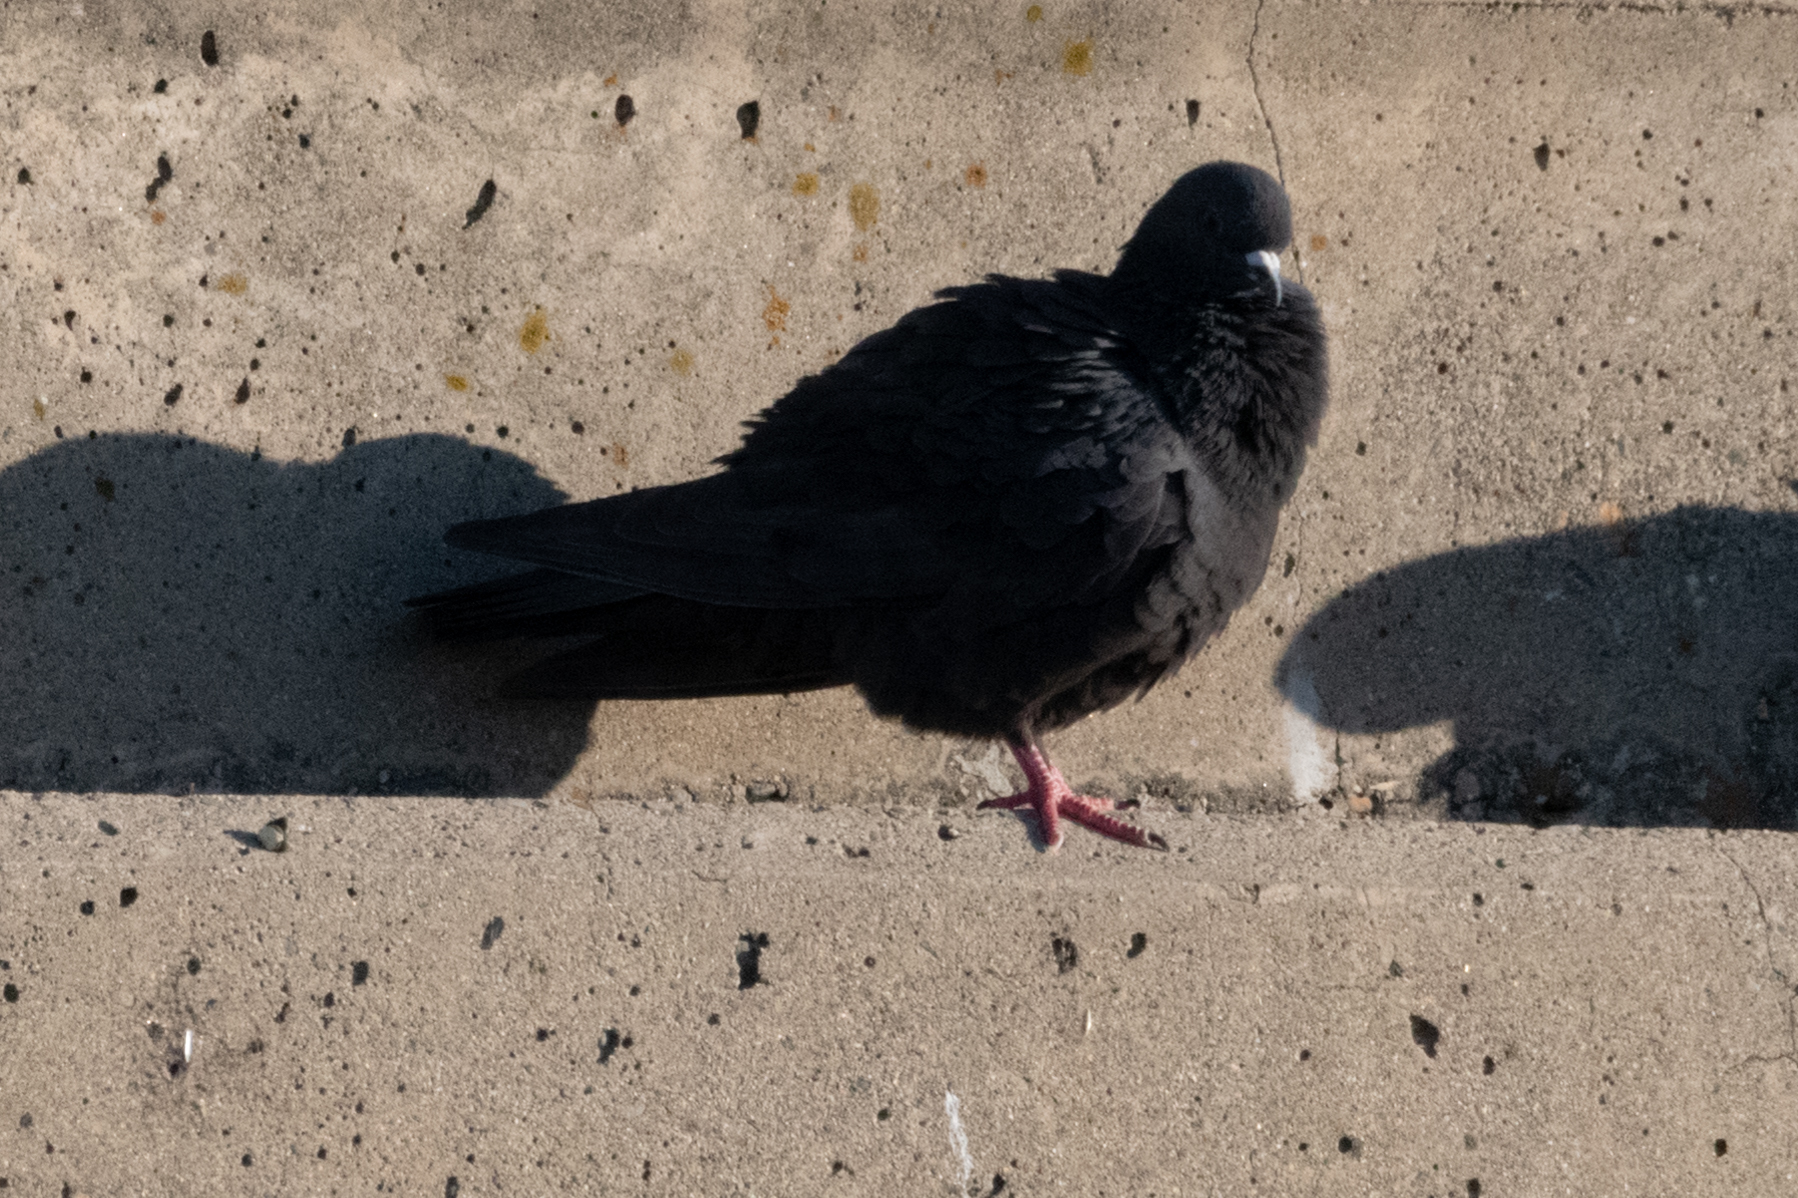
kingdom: Animalia
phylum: Chordata
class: Aves
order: Columbiformes
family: Columbidae
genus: Columba
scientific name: Columba livia
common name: Rock pigeon
